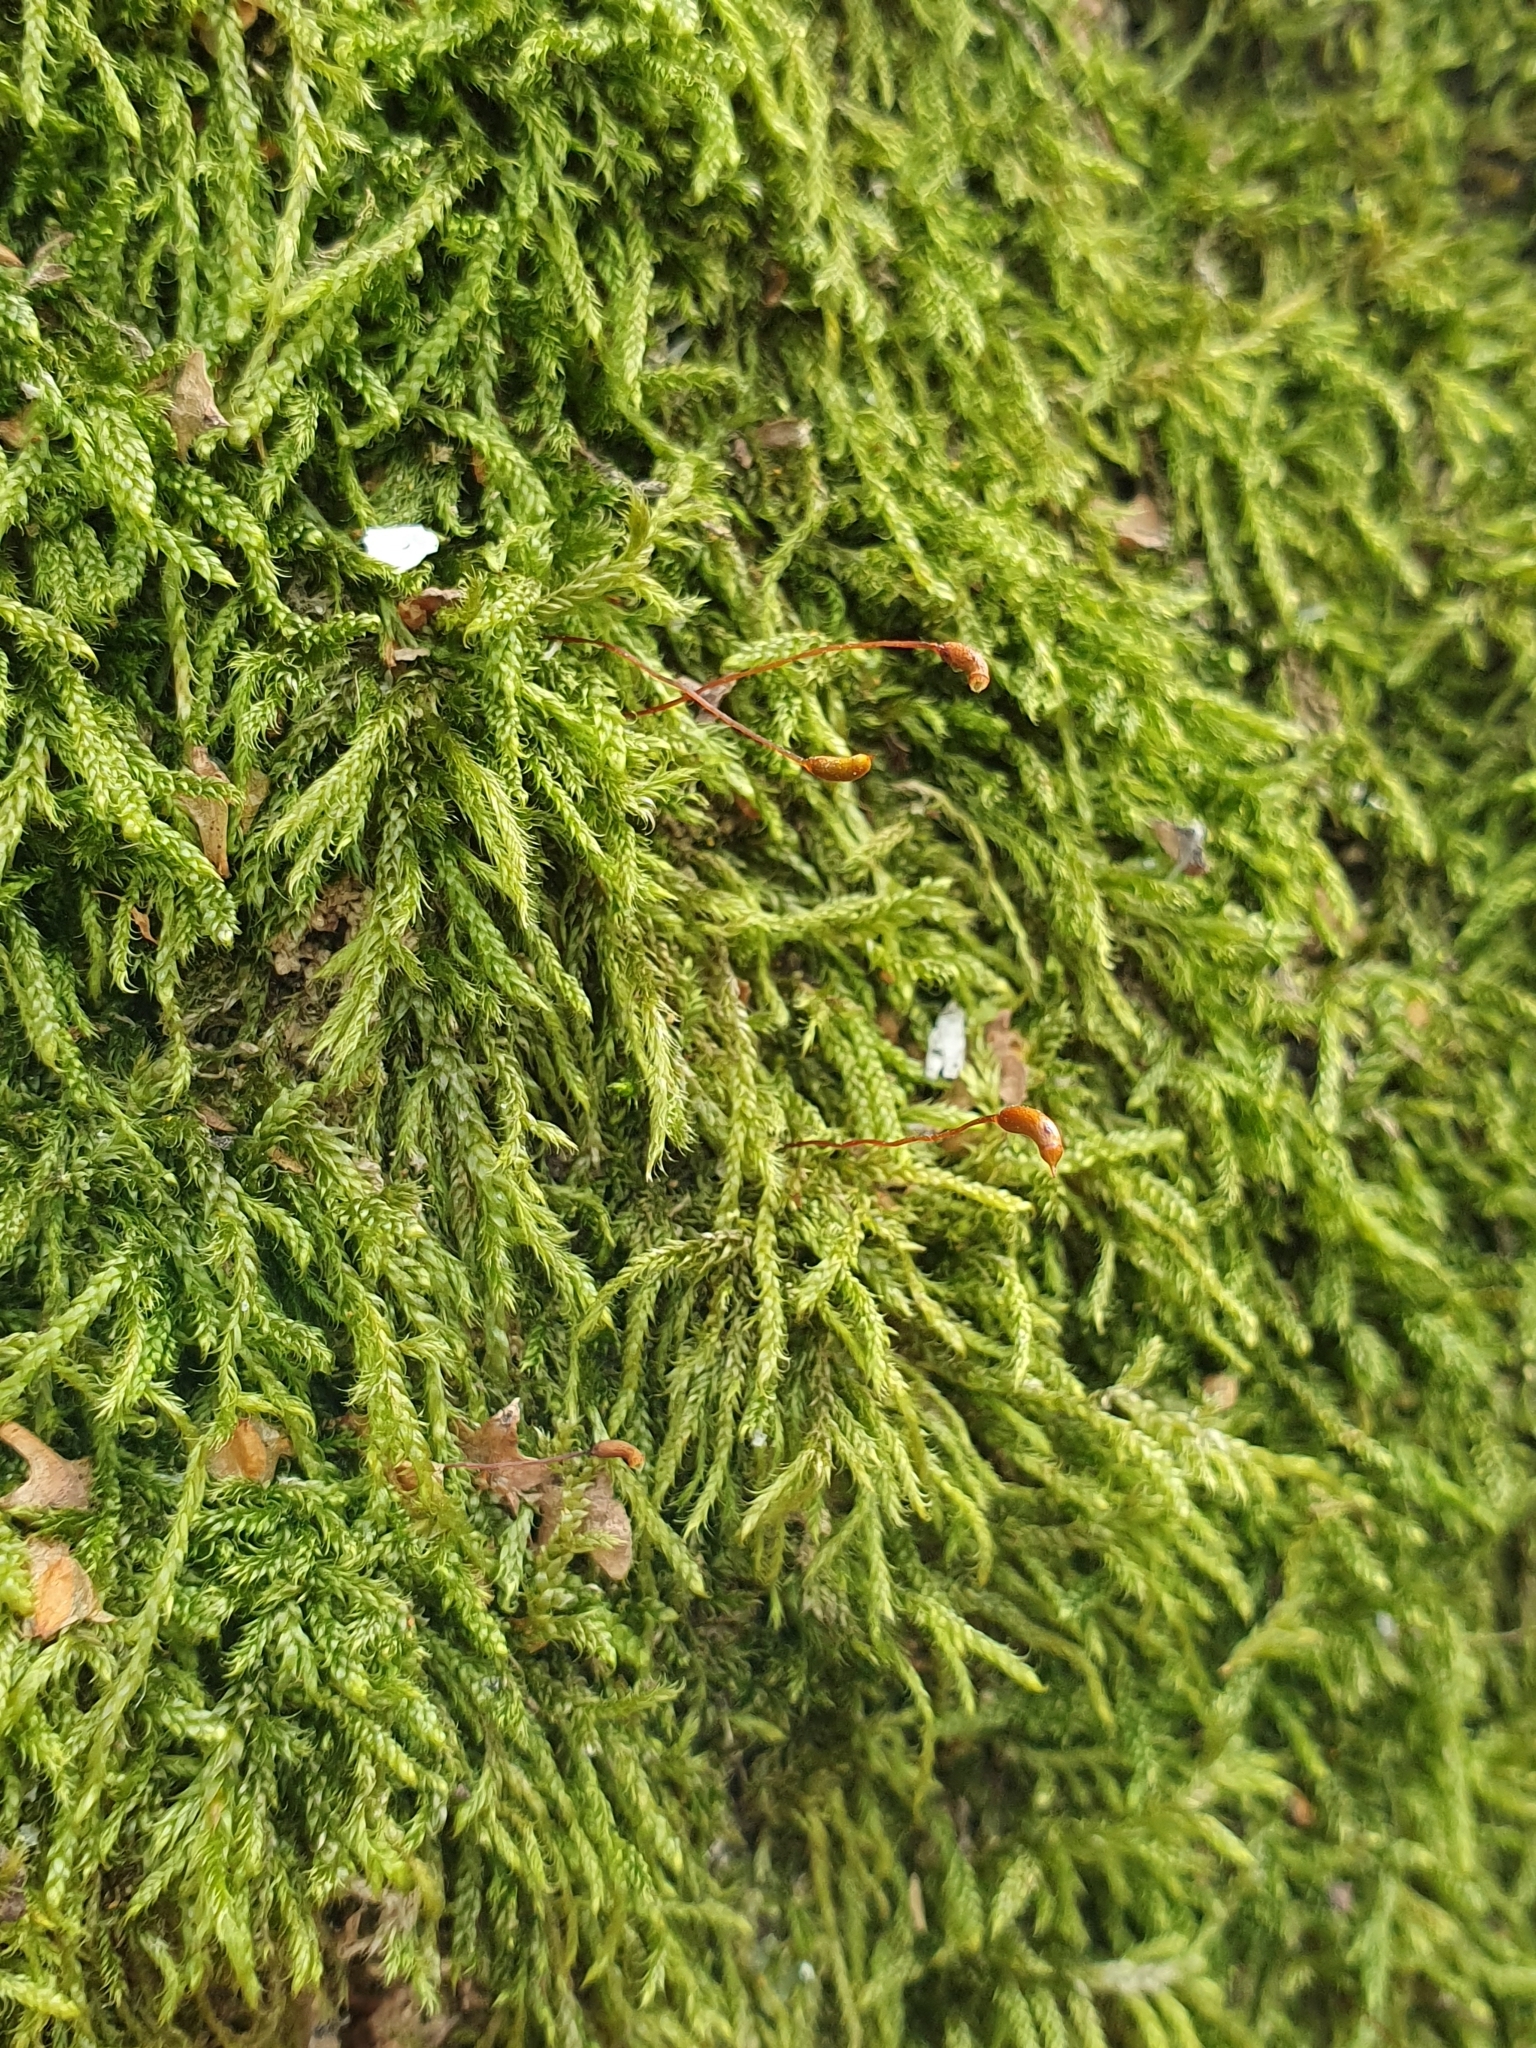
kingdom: Plantae
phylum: Bryophyta
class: Bryopsida
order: Hypnales
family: Hypnaceae
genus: Hypnum
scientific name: Hypnum cupressiforme
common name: Cypress-leaved plait-moss
